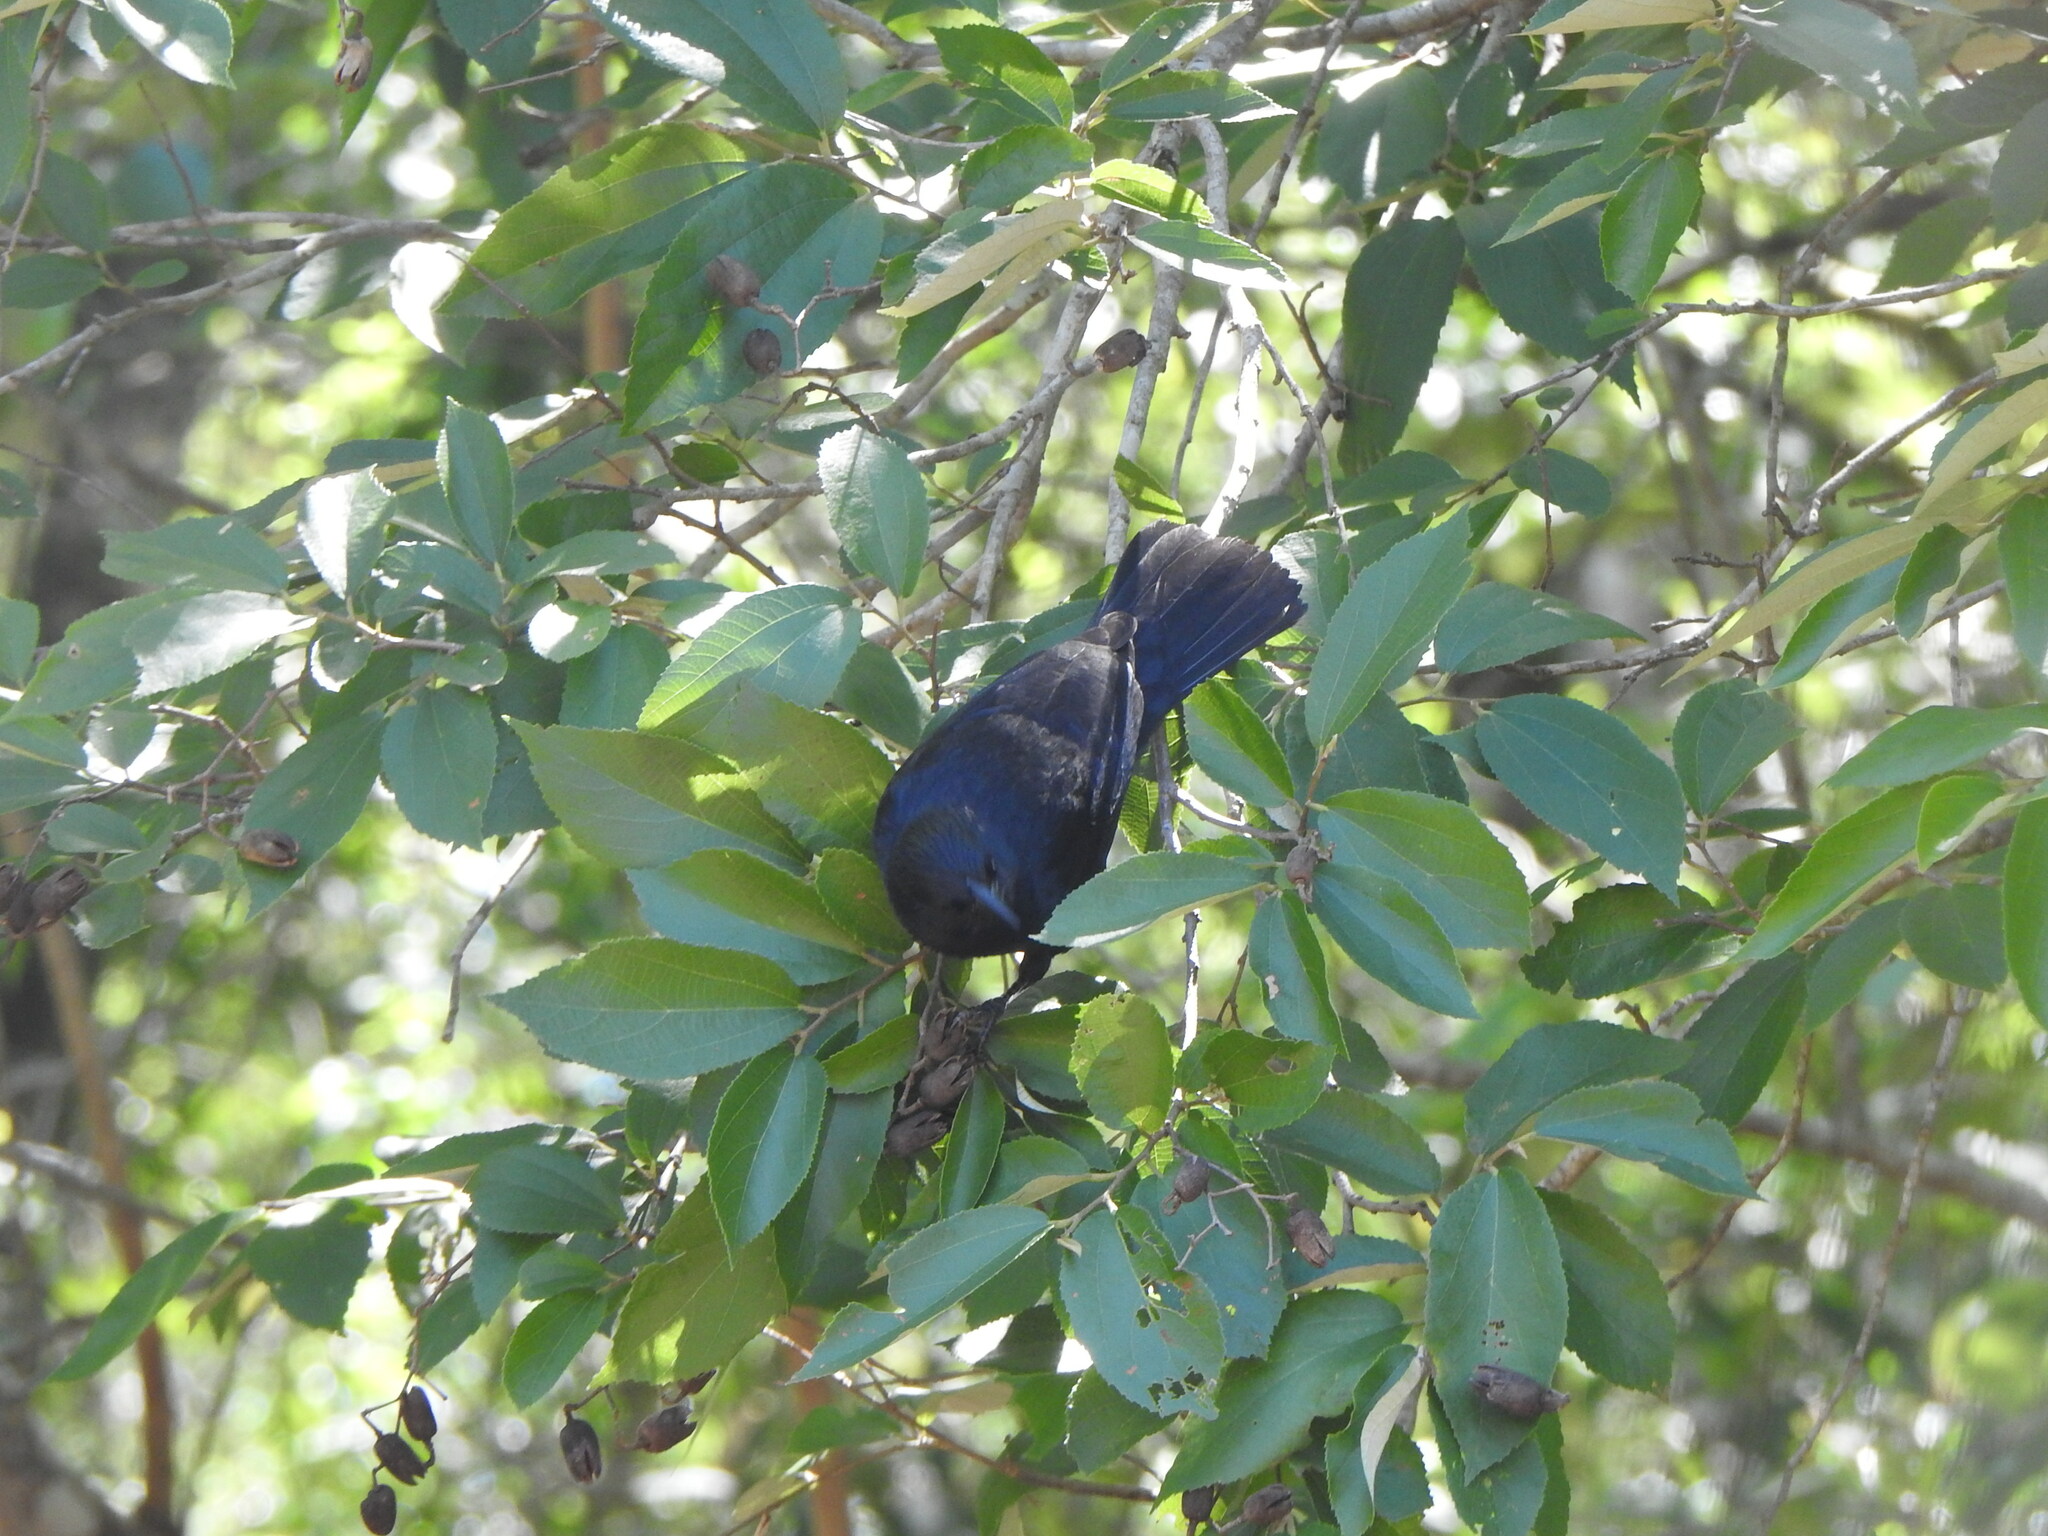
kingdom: Animalia
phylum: Chordata
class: Aves
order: Passeriformes
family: Icteridae
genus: Gnorimopsar
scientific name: Gnorimopsar chopi
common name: Chopi blackbird
